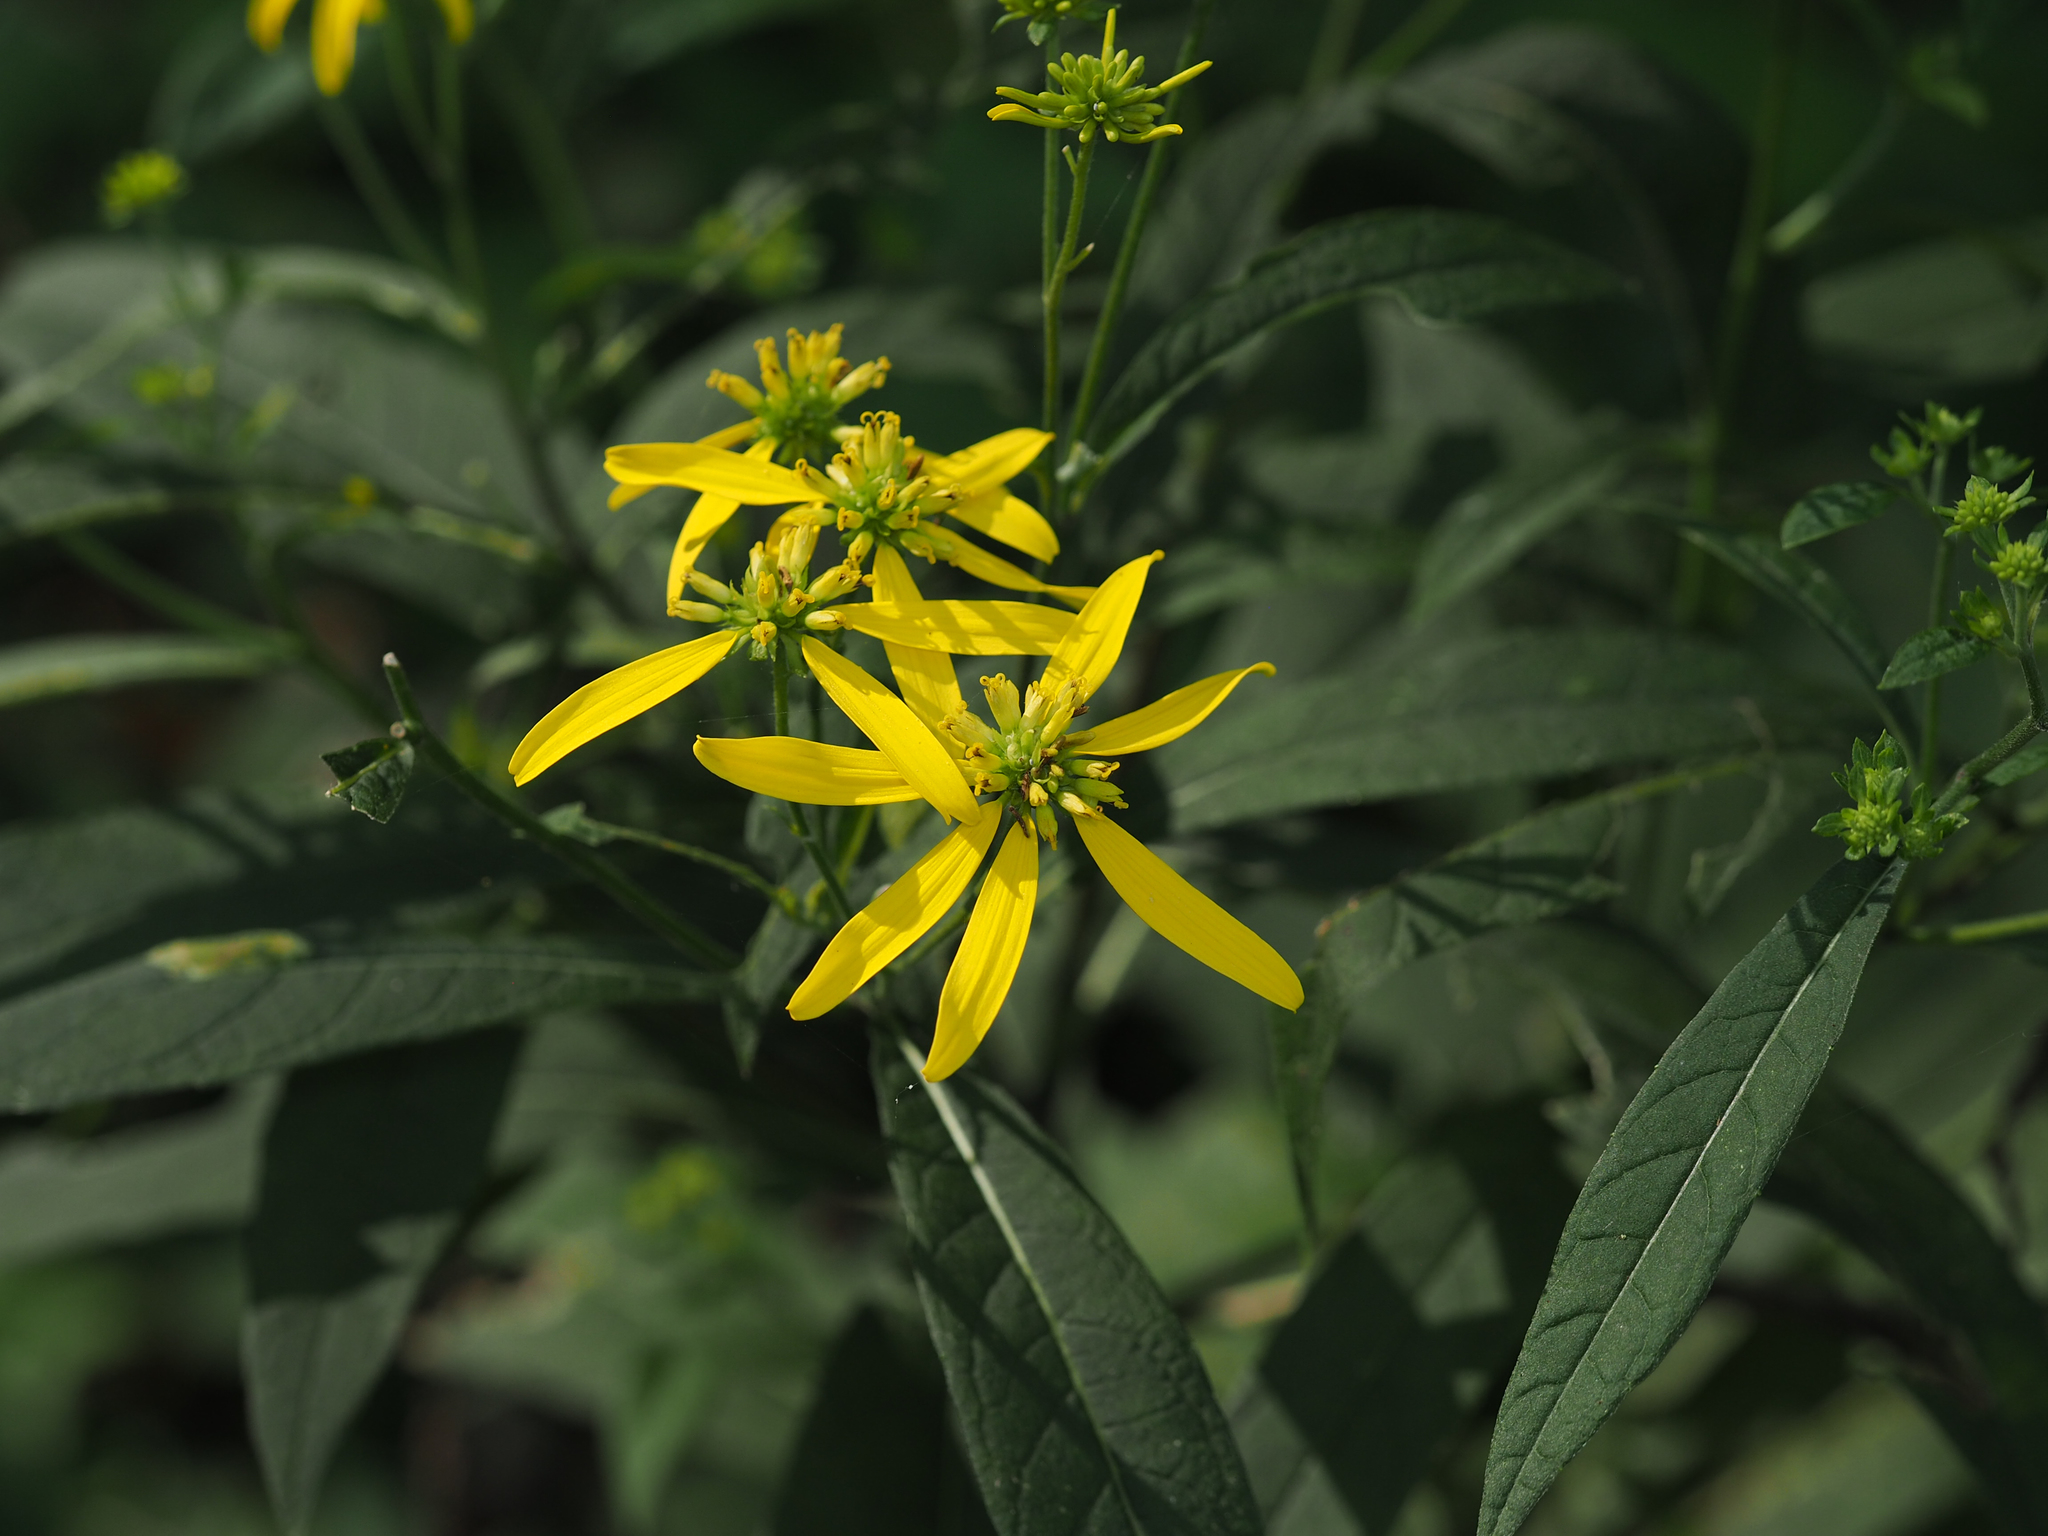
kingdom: Plantae
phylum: Tracheophyta
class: Magnoliopsida
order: Asterales
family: Asteraceae
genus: Verbesina
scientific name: Verbesina alternifolia
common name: Wingstem
